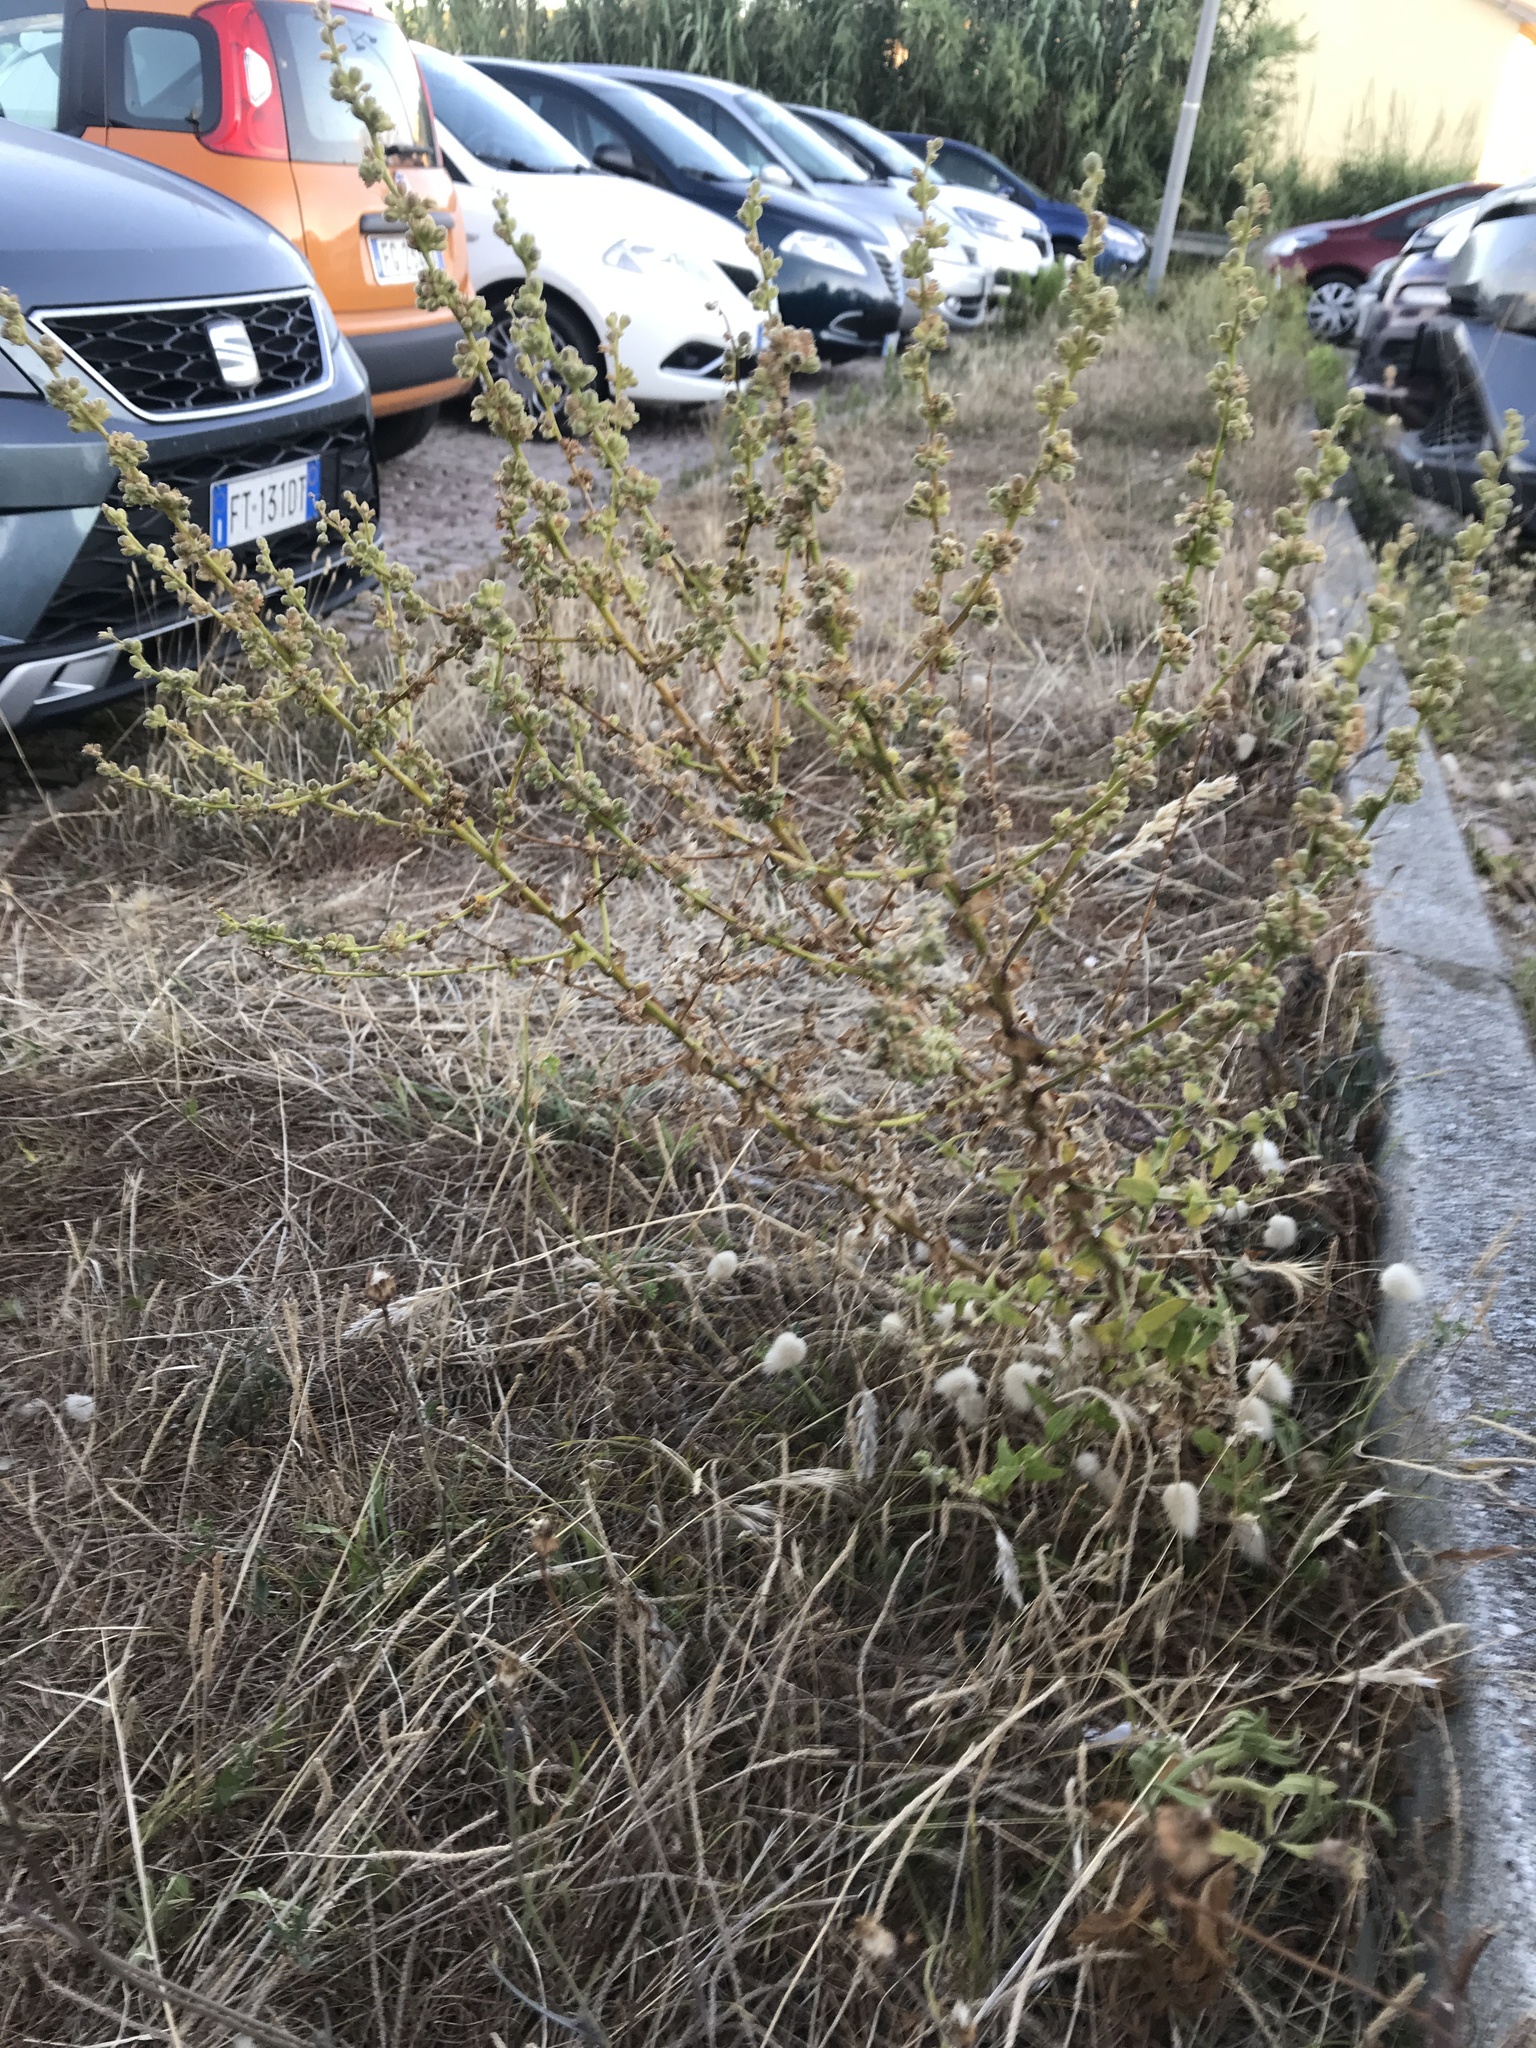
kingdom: Plantae
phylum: Tracheophyta
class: Magnoliopsida
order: Lamiales
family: Scrophulariaceae
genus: Verbascum
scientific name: Verbascum sinuatum
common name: Wavyleaf mullein
